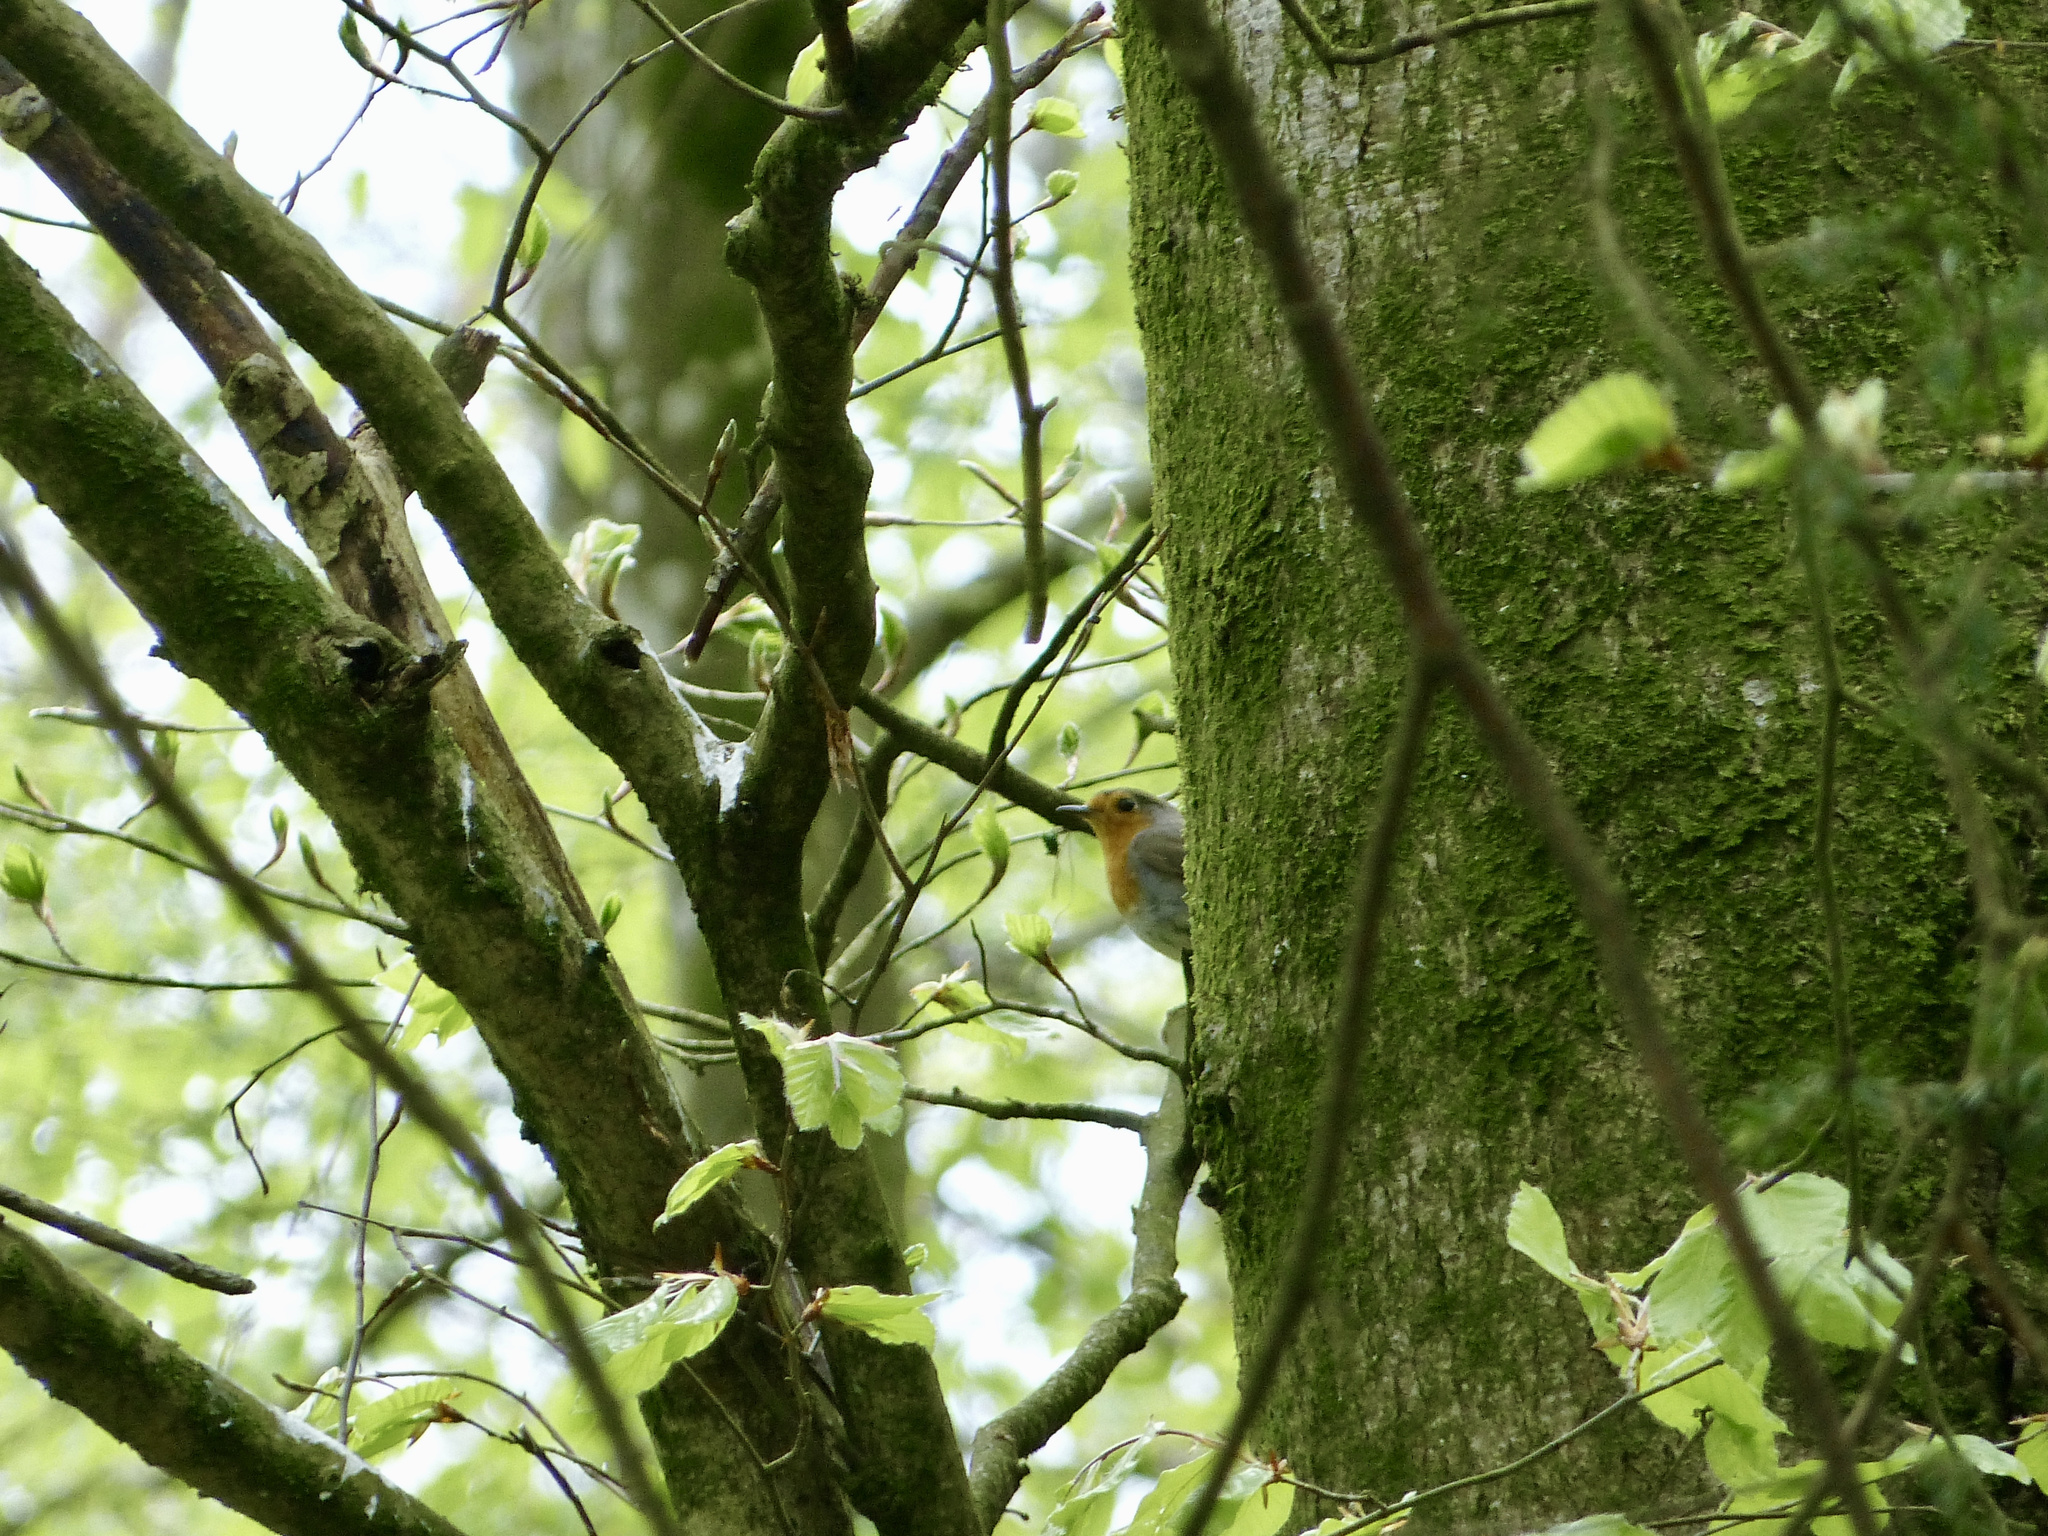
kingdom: Animalia
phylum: Chordata
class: Aves
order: Passeriformes
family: Muscicapidae
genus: Erithacus
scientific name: Erithacus rubecula
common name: European robin
